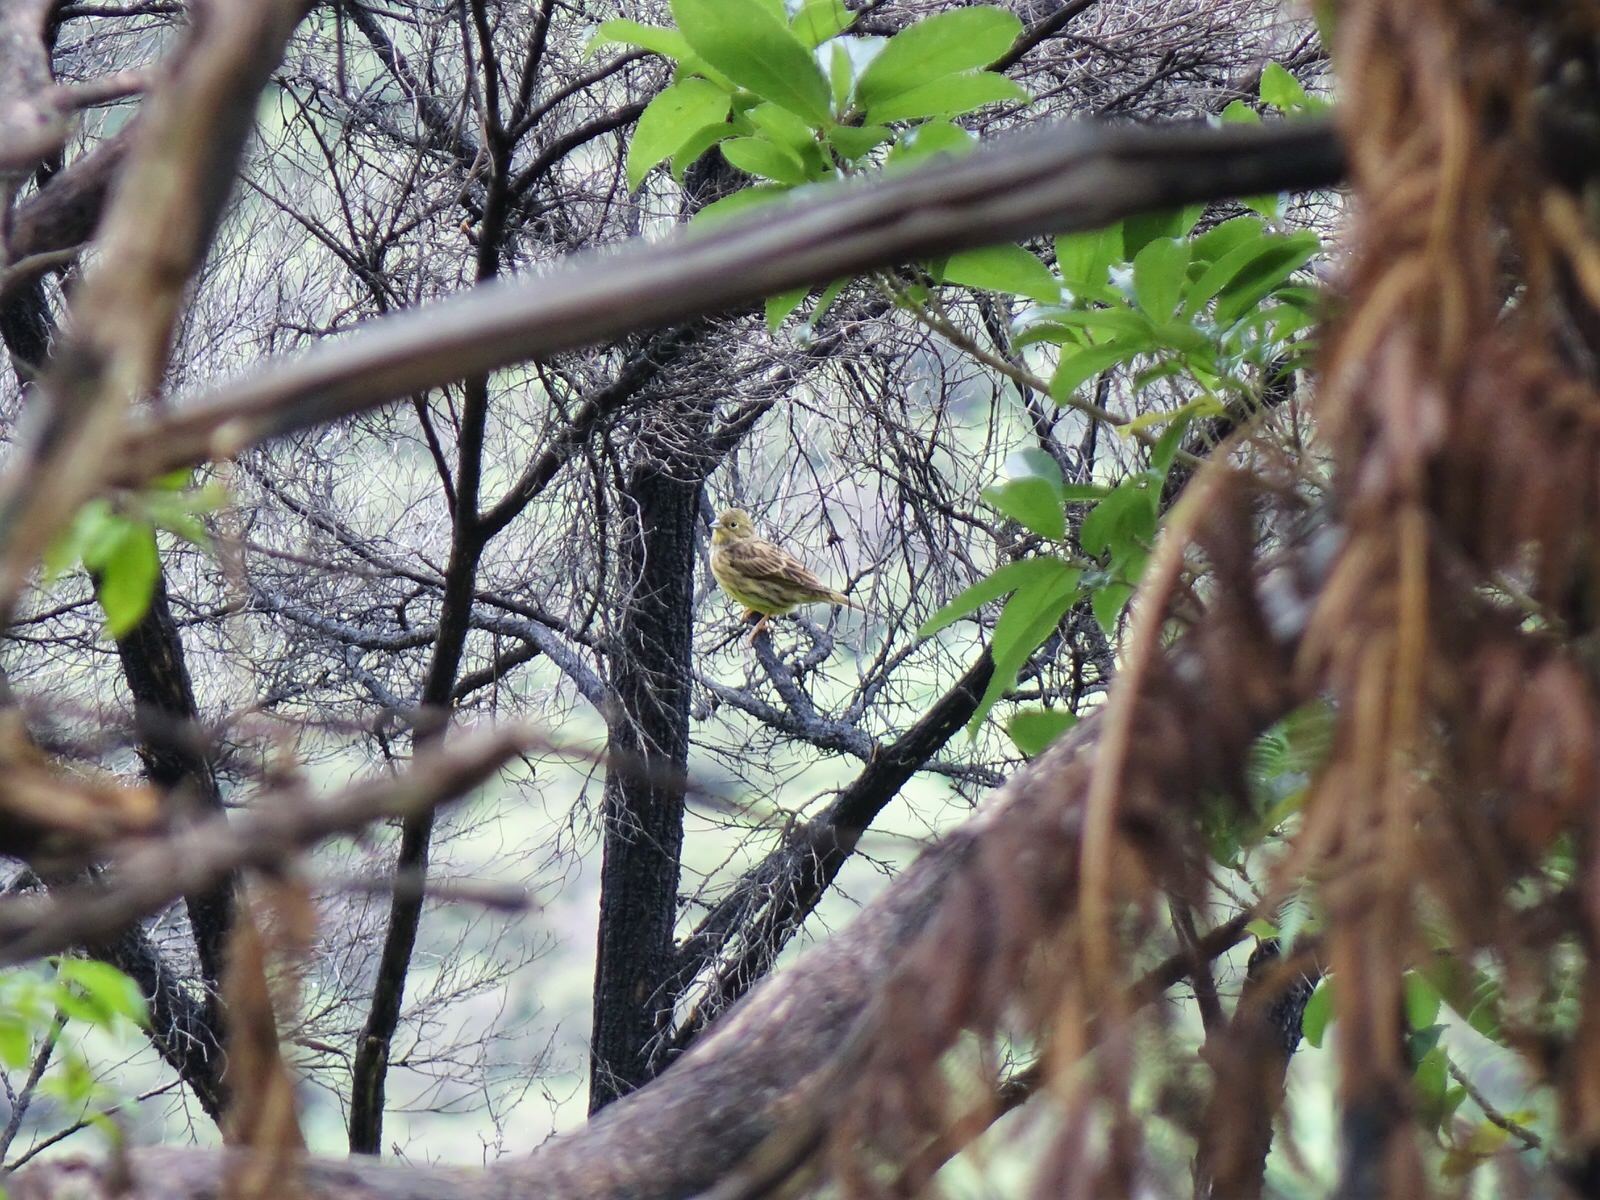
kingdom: Animalia
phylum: Chordata
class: Aves
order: Passeriformes
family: Emberizidae
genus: Emberiza
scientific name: Emberiza citrinella
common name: Yellowhammer
